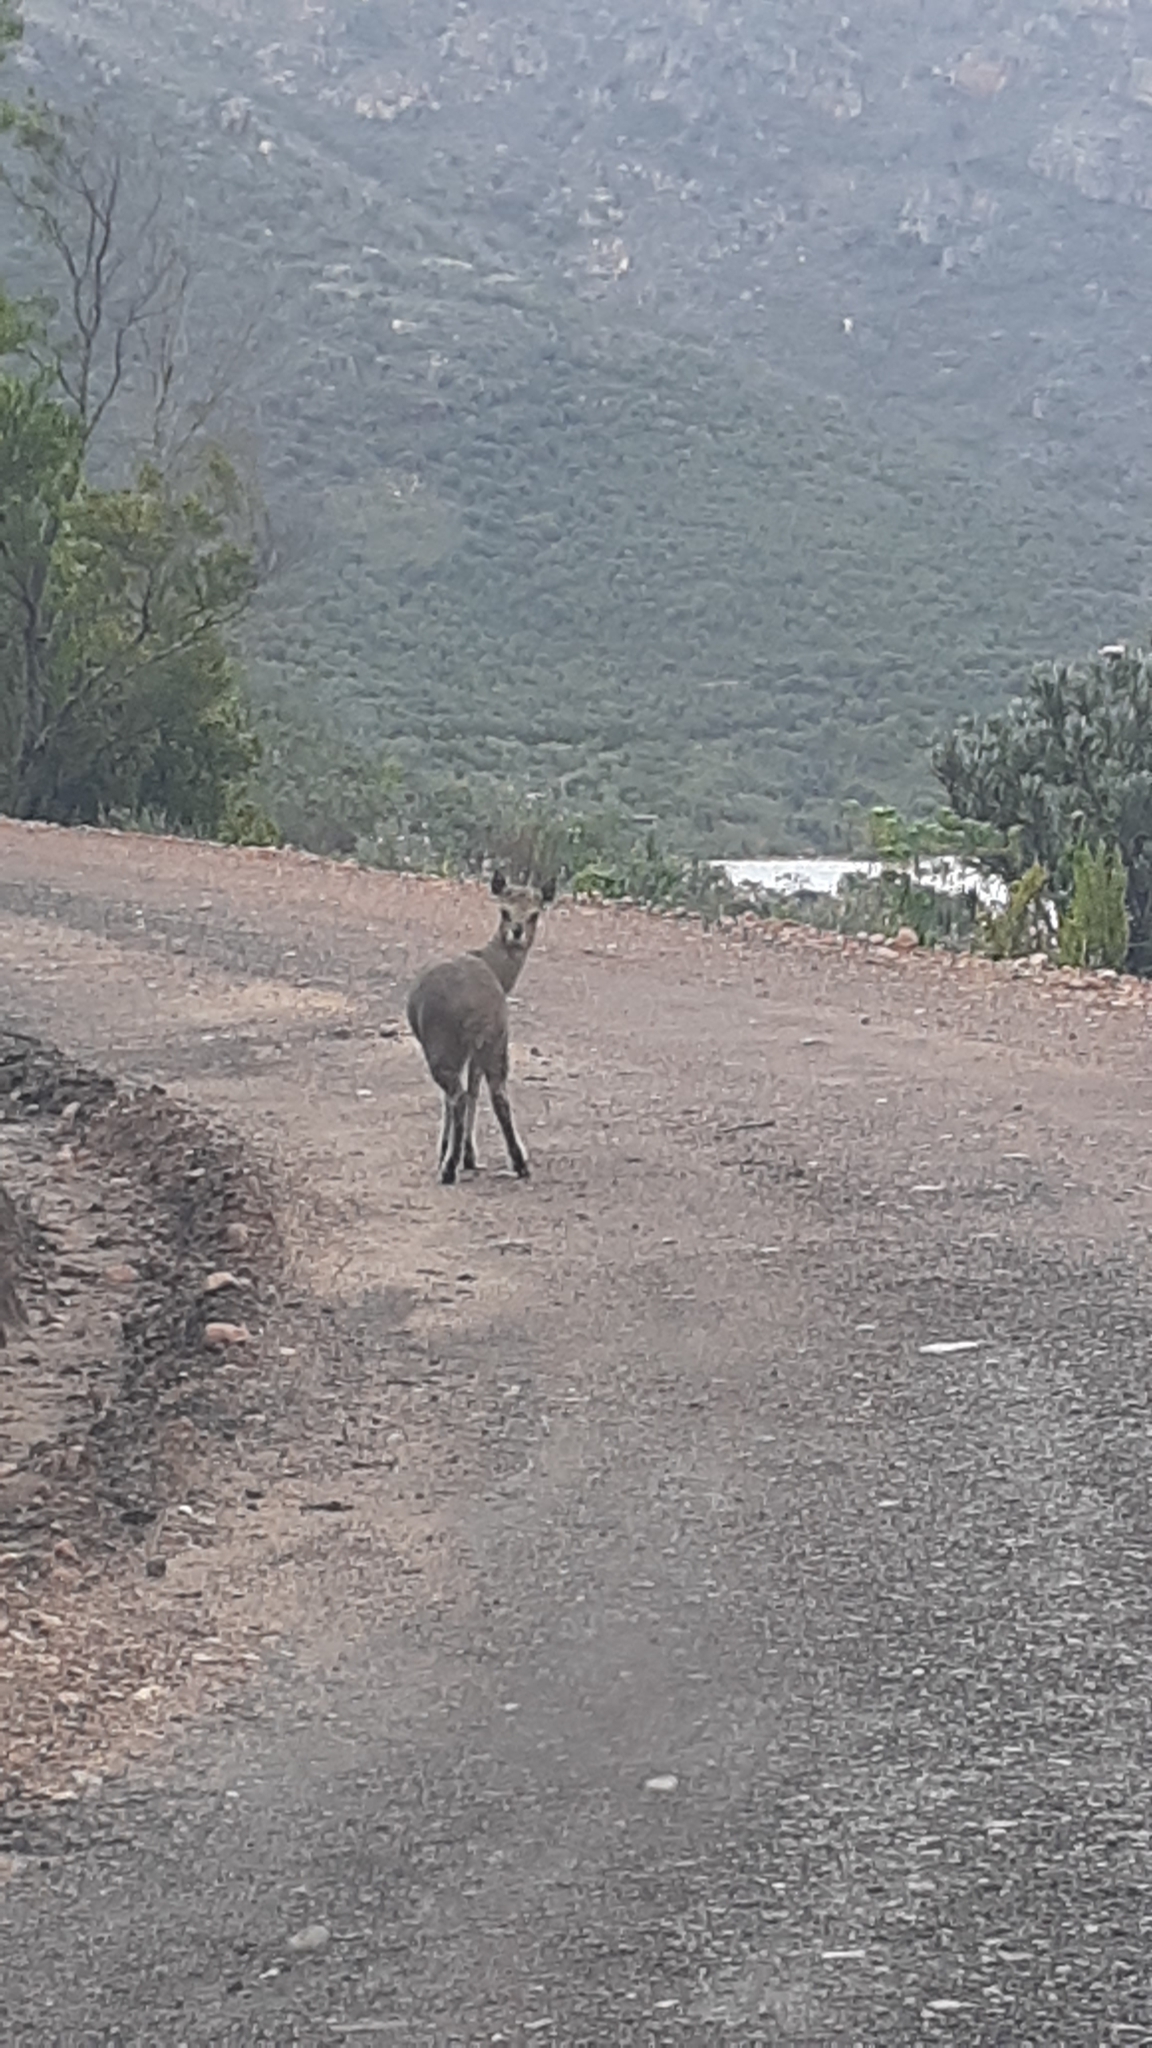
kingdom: Animalia
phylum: Chordata
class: Mammalia
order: Artiodactyla
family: Bovidae
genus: Oreotragus
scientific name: Oreotragus oreotragus
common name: Klipspringer
